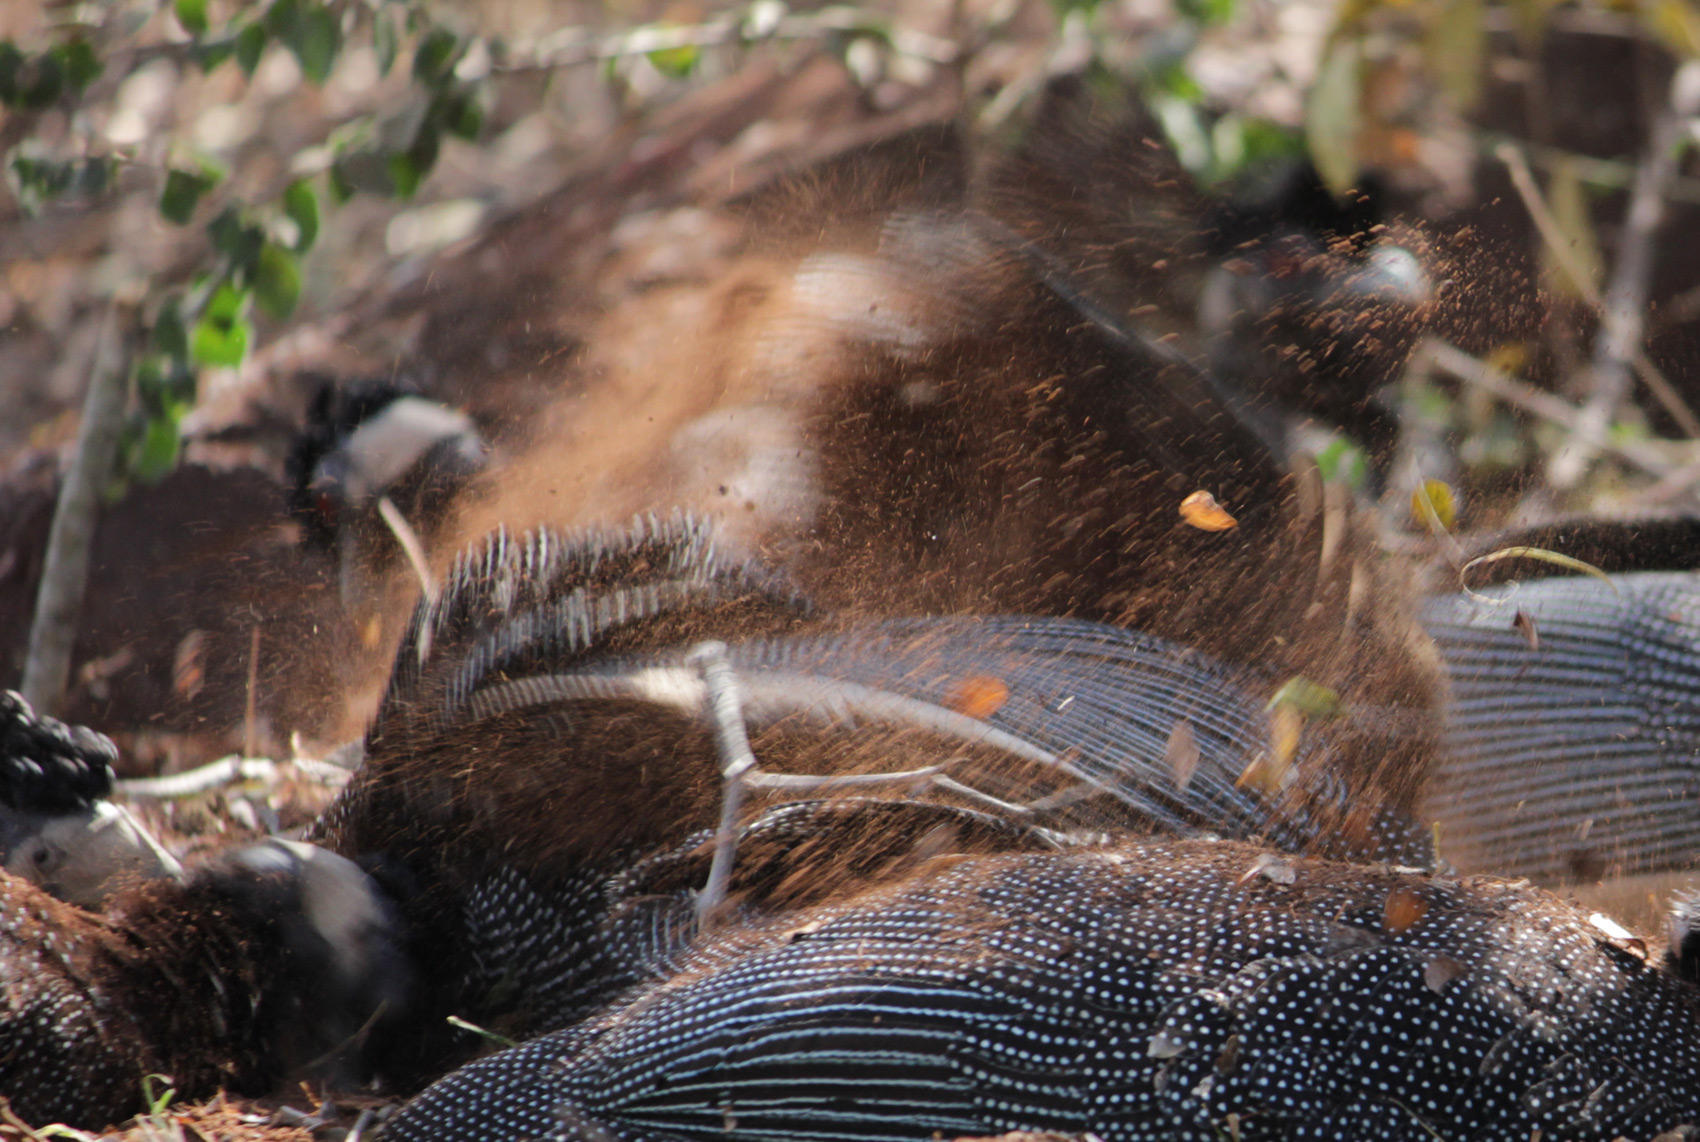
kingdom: Animalia
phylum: Chordata
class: Aves
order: Galliformes
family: Numididae
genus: Guttera
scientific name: Guttera pucherani
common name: Crested guineafowl
